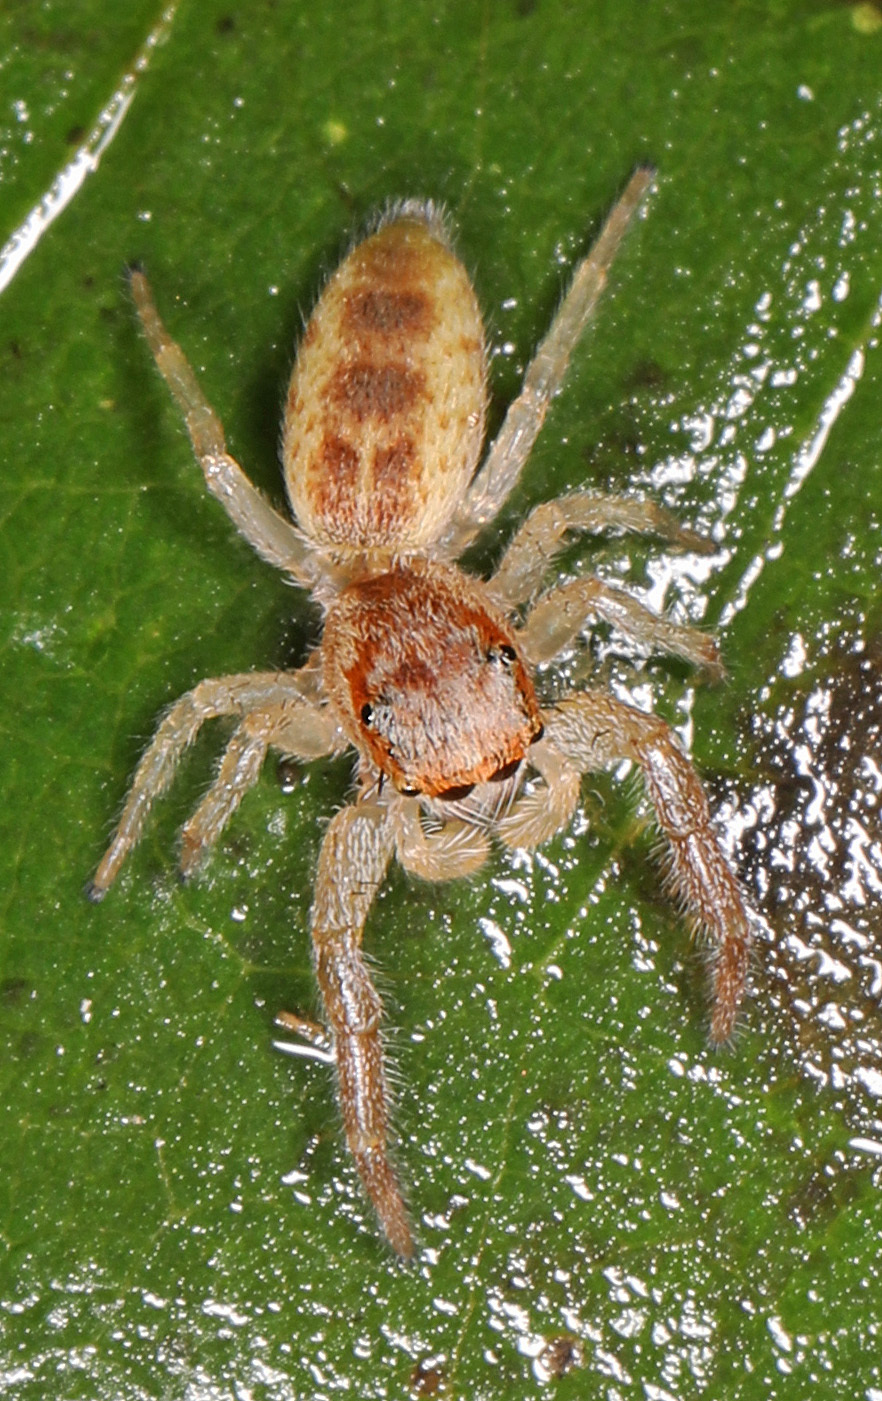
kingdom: Animalia
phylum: Arthropoda
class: Arachnida
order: Araneae
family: Salticidae
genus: Hentzia
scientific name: Hentzia
